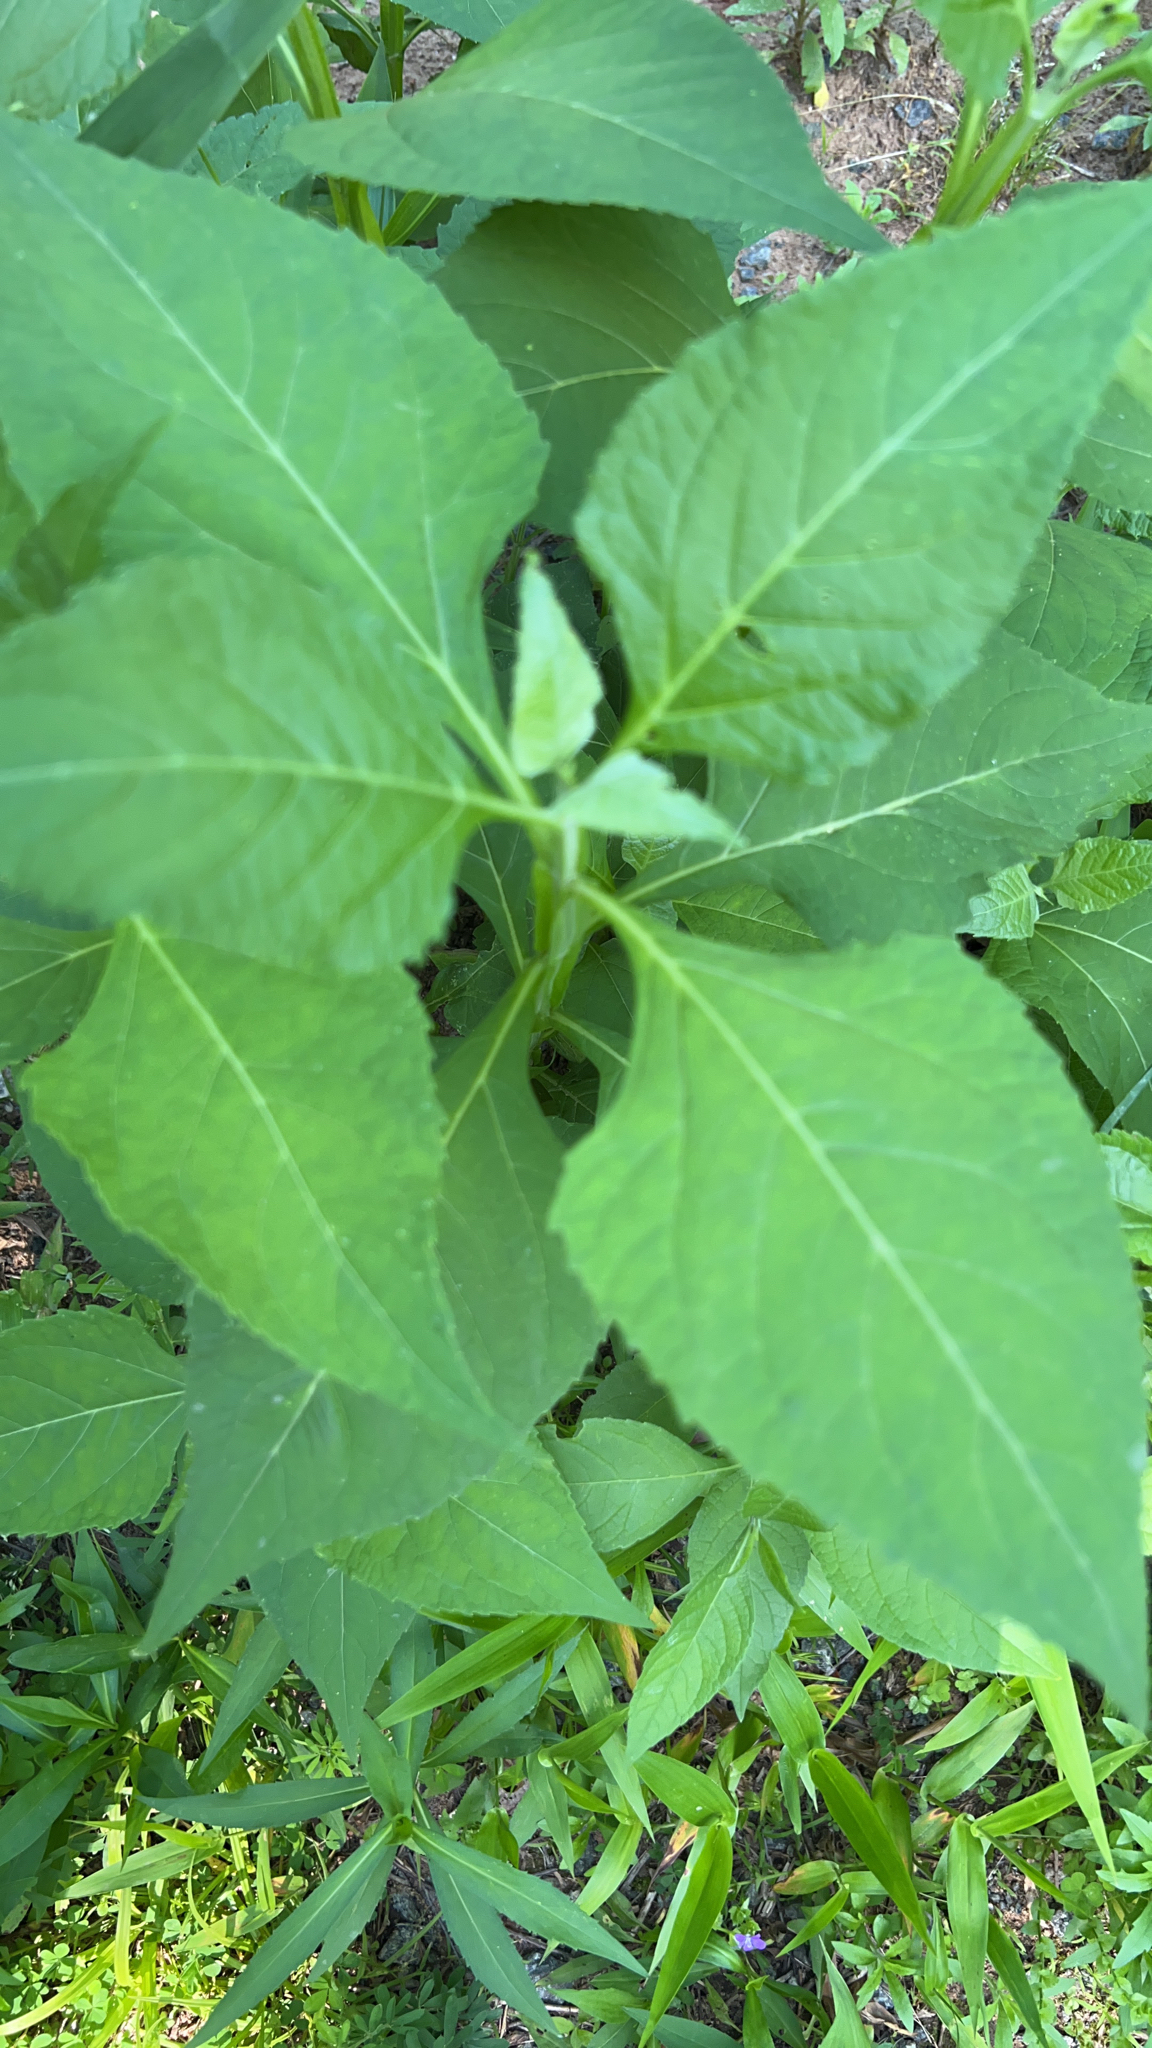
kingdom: Plantae
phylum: Tracheophyta
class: Magnoliopsida
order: Asterales
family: Asteraceae
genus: Verbesina
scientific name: Verbesina occidentalis
